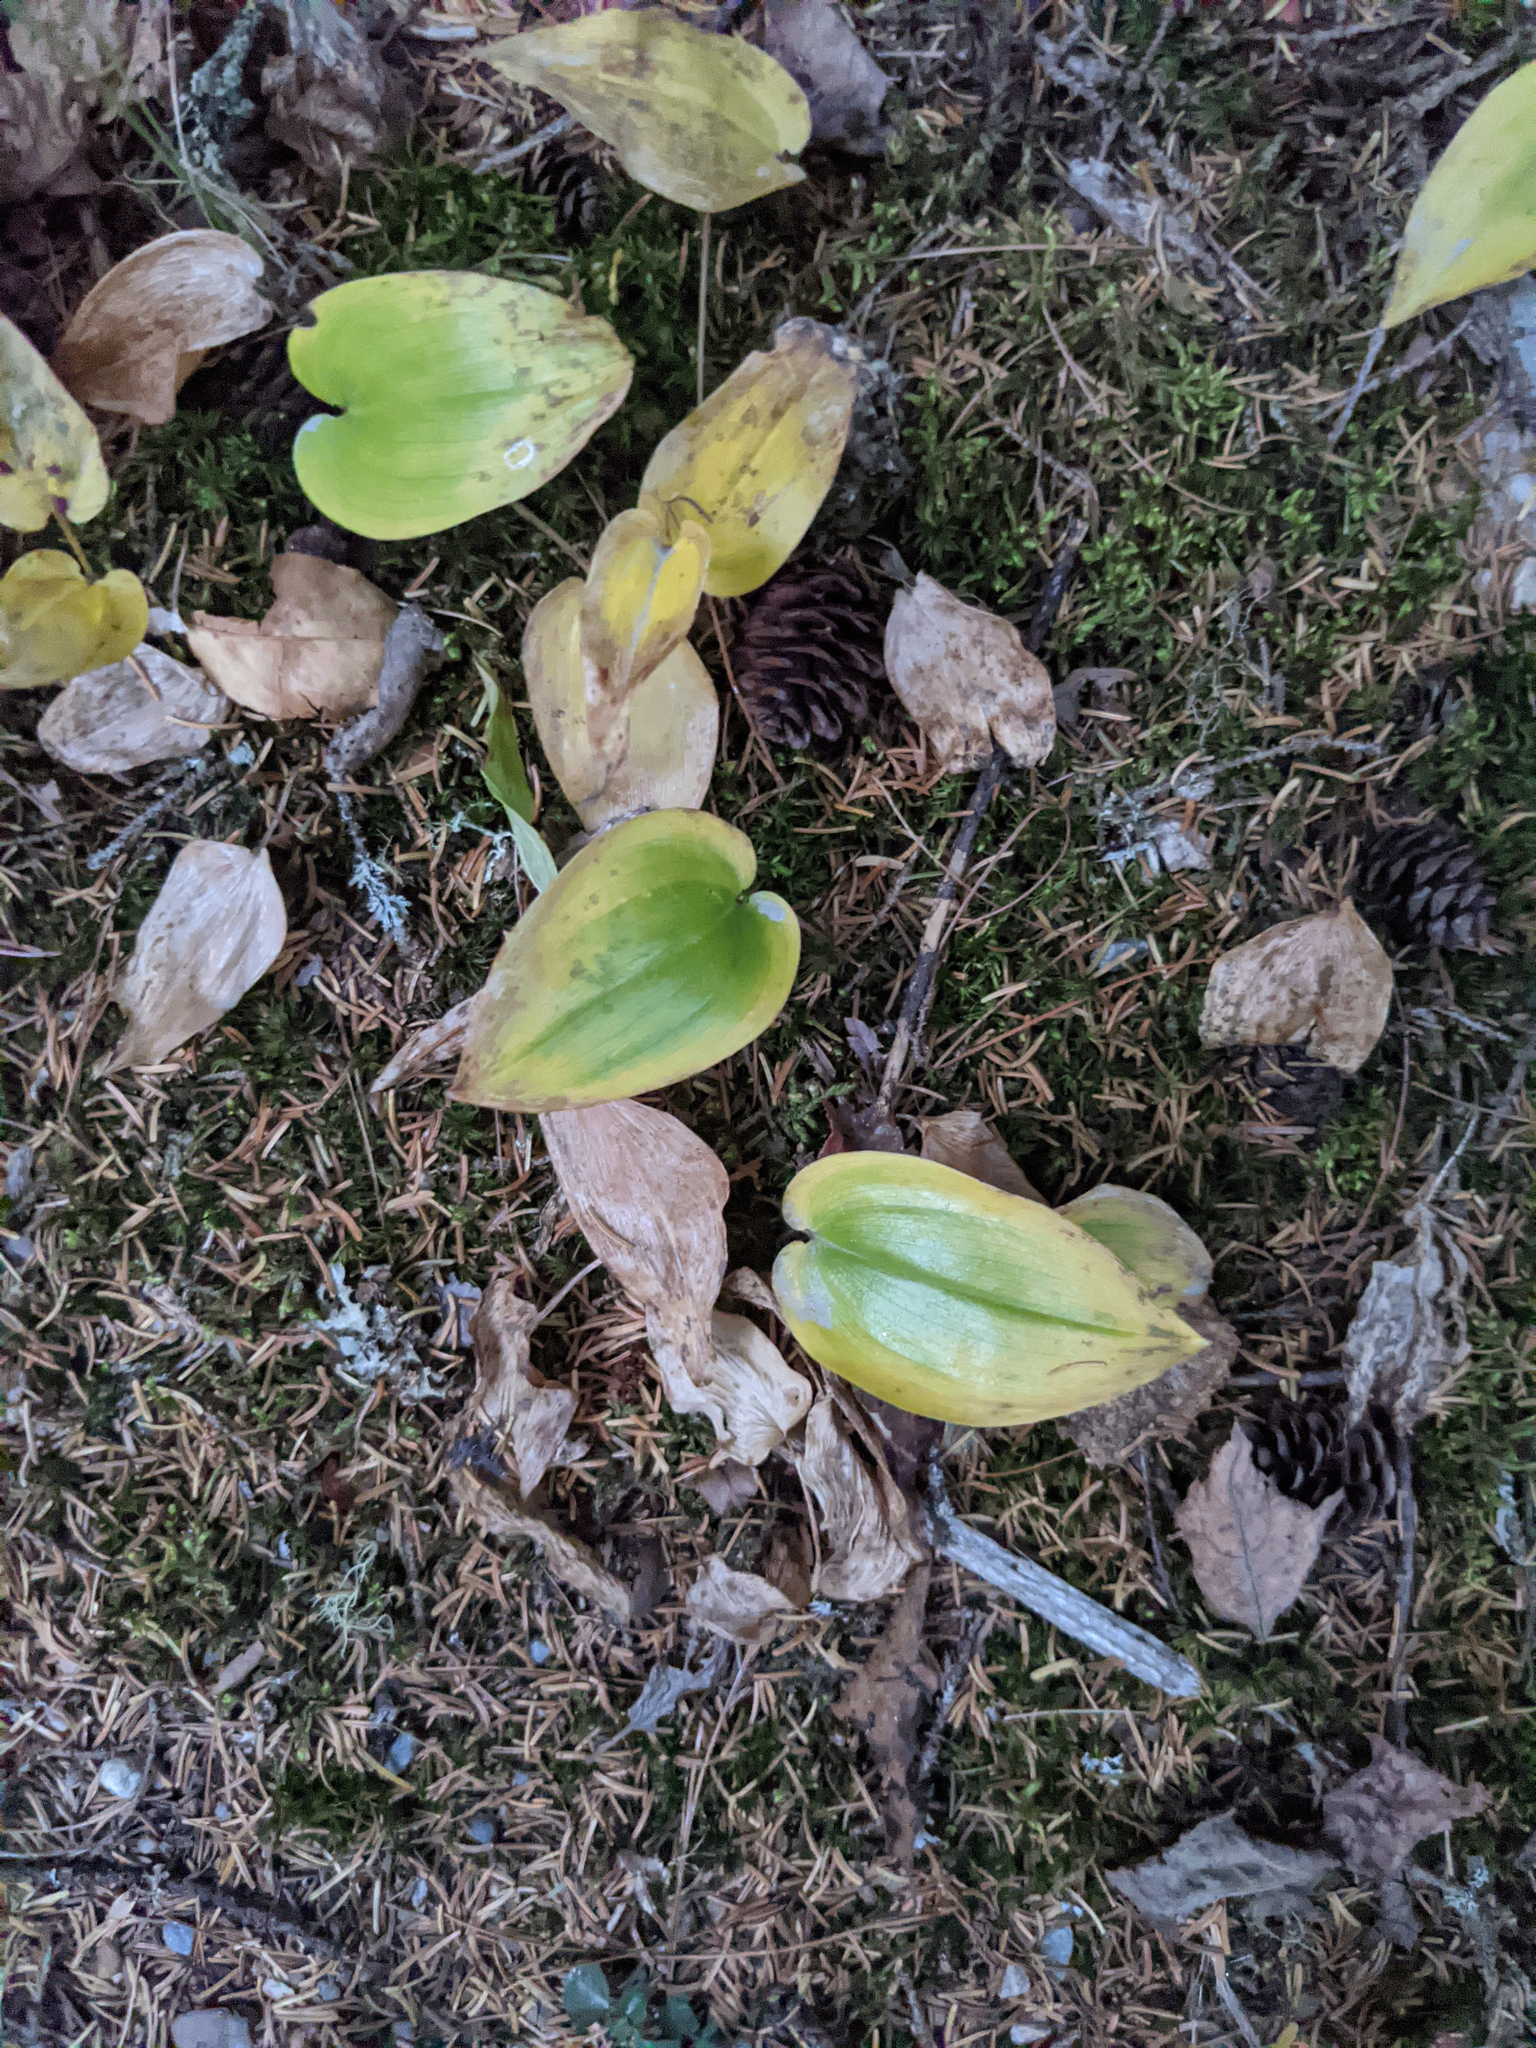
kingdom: Plantae
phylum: Tracheophyta
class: Liliopsida
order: Asparagales
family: Asparagaceae
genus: Maianthemum
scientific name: Maianthemum canadense
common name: False lily-of-the-valley
